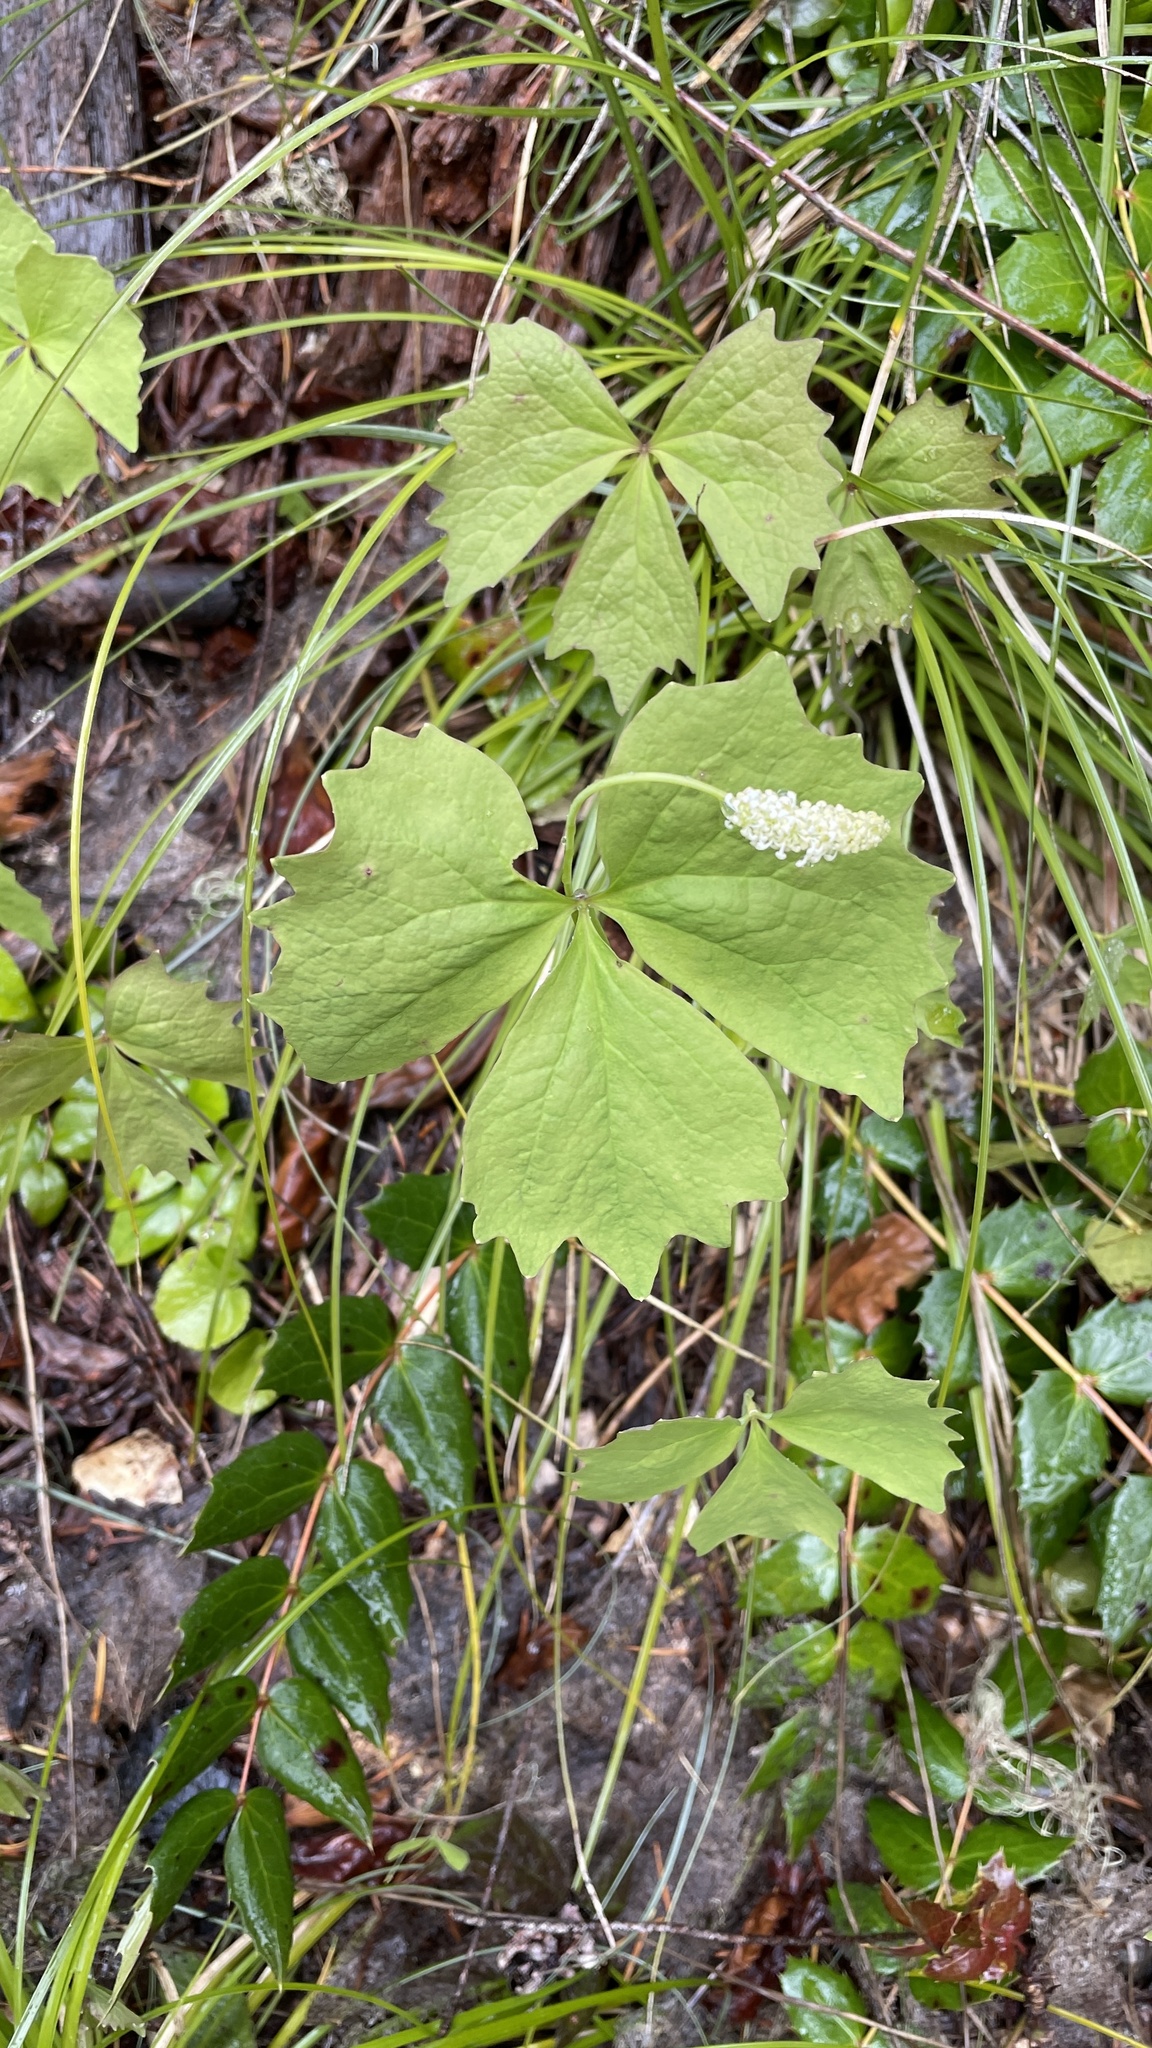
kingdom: Plantae
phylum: Tracheophyta
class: Magnoliopsida
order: Ranunculales
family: Berberidaceae
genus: Achlys
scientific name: Achlys triphylla
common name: Vanilla-leaf
